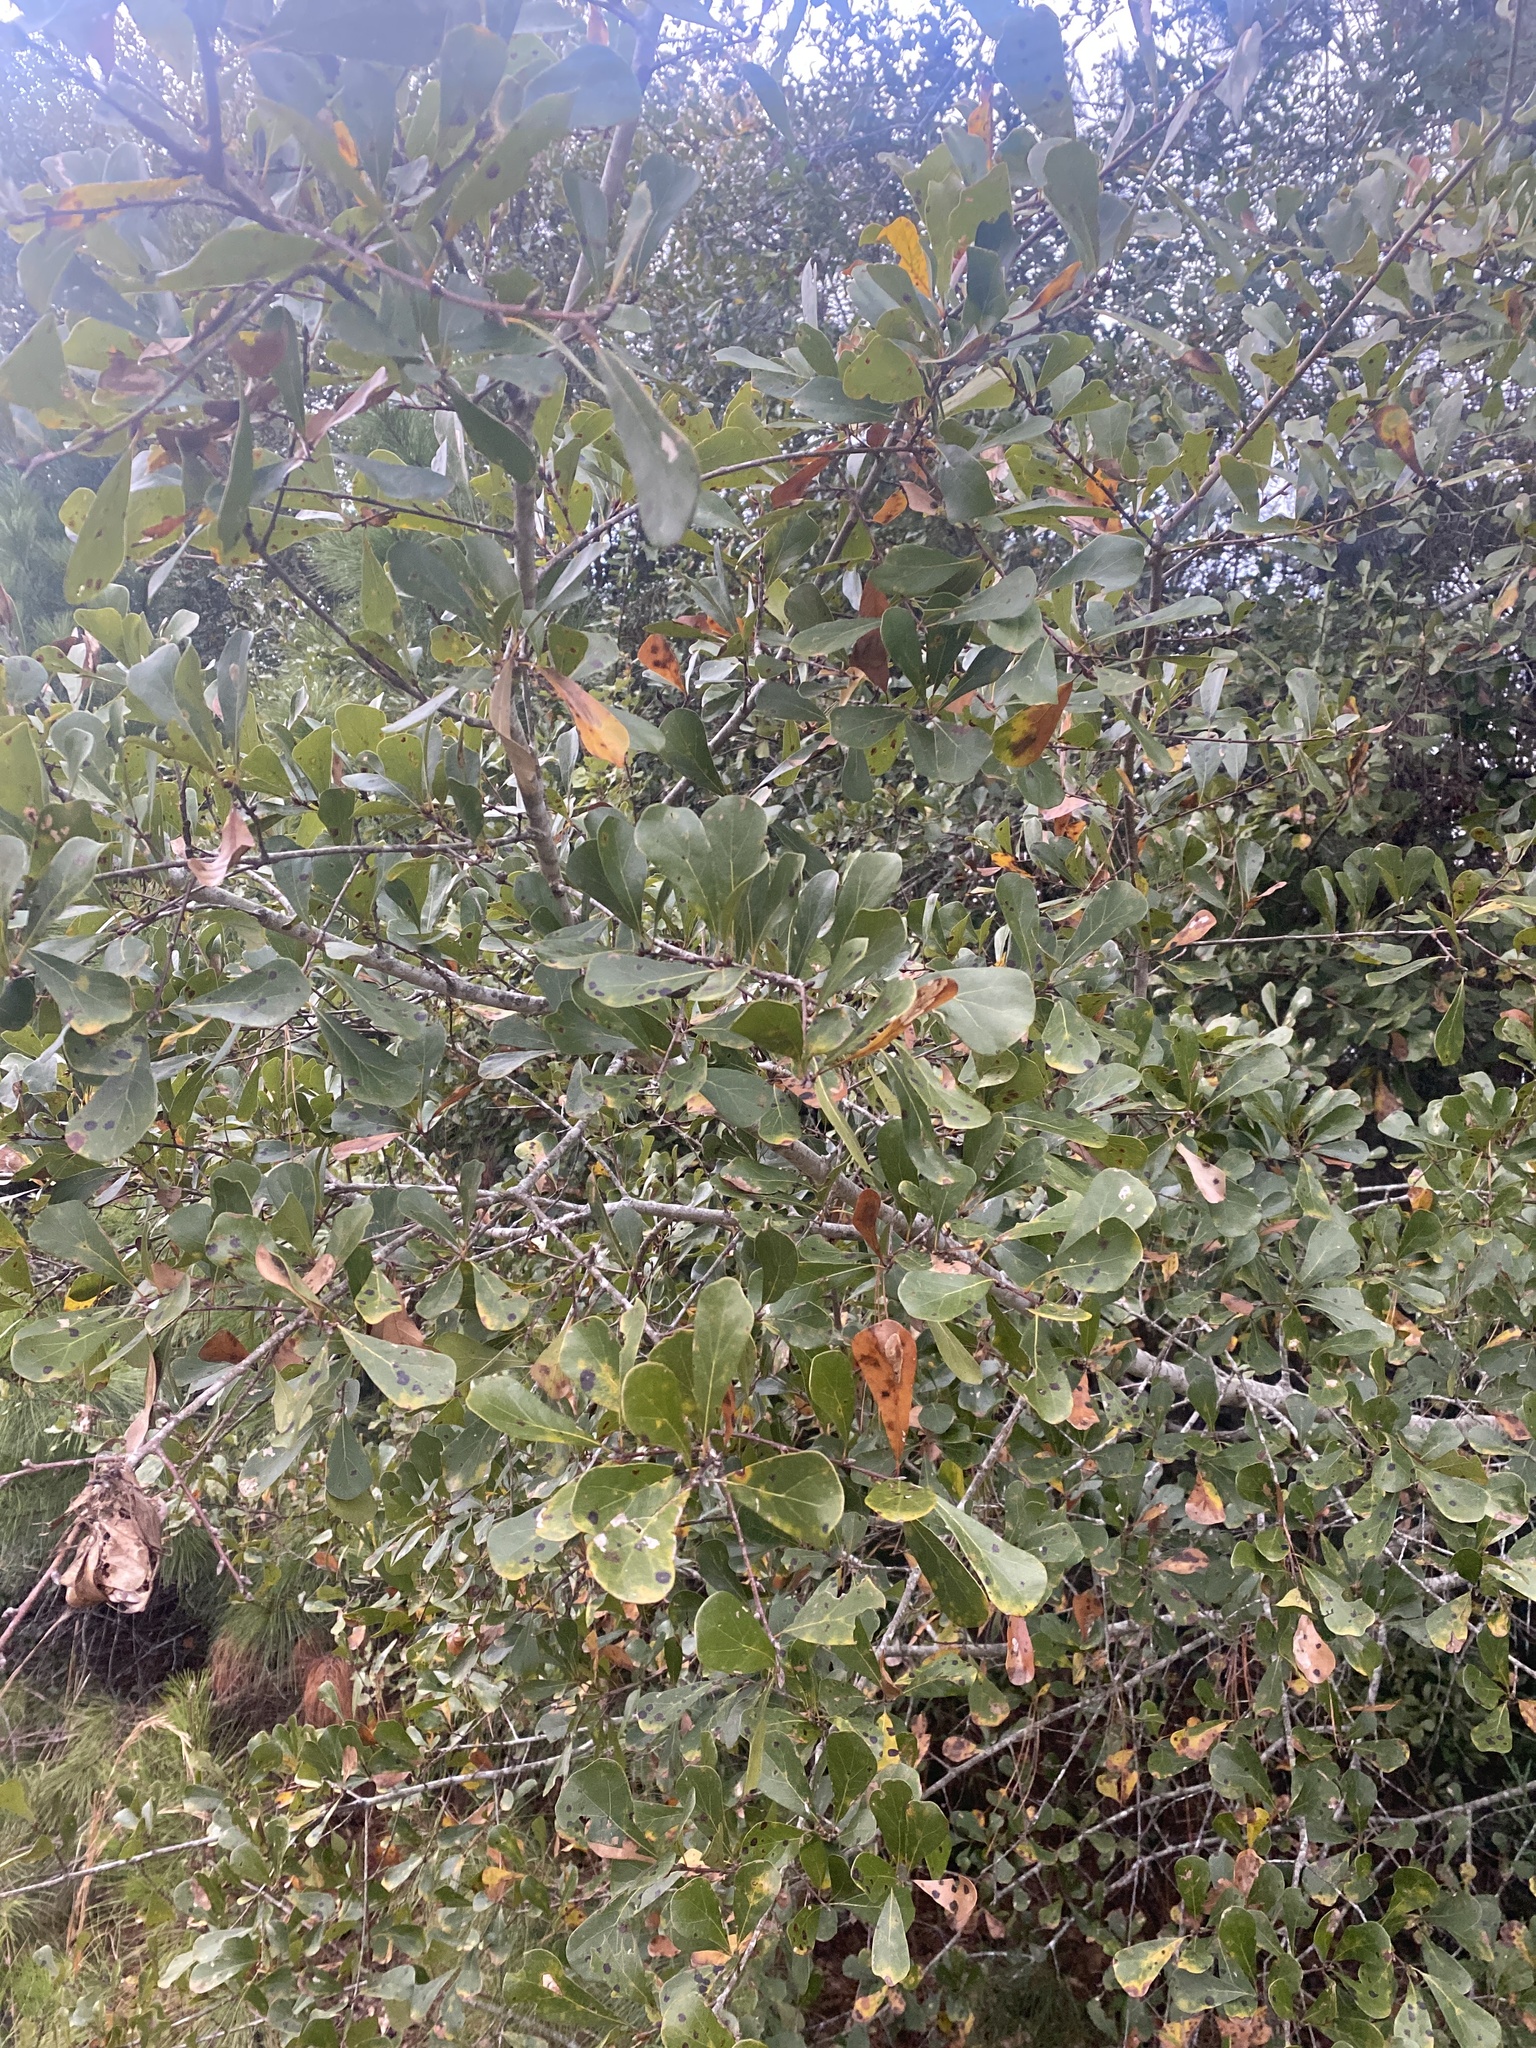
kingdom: Plantae
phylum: Tracheophyta
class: Magnoliopsida
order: Fagales
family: Fagaceae
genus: Quercus
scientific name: Quercus nigra
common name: Water oak
